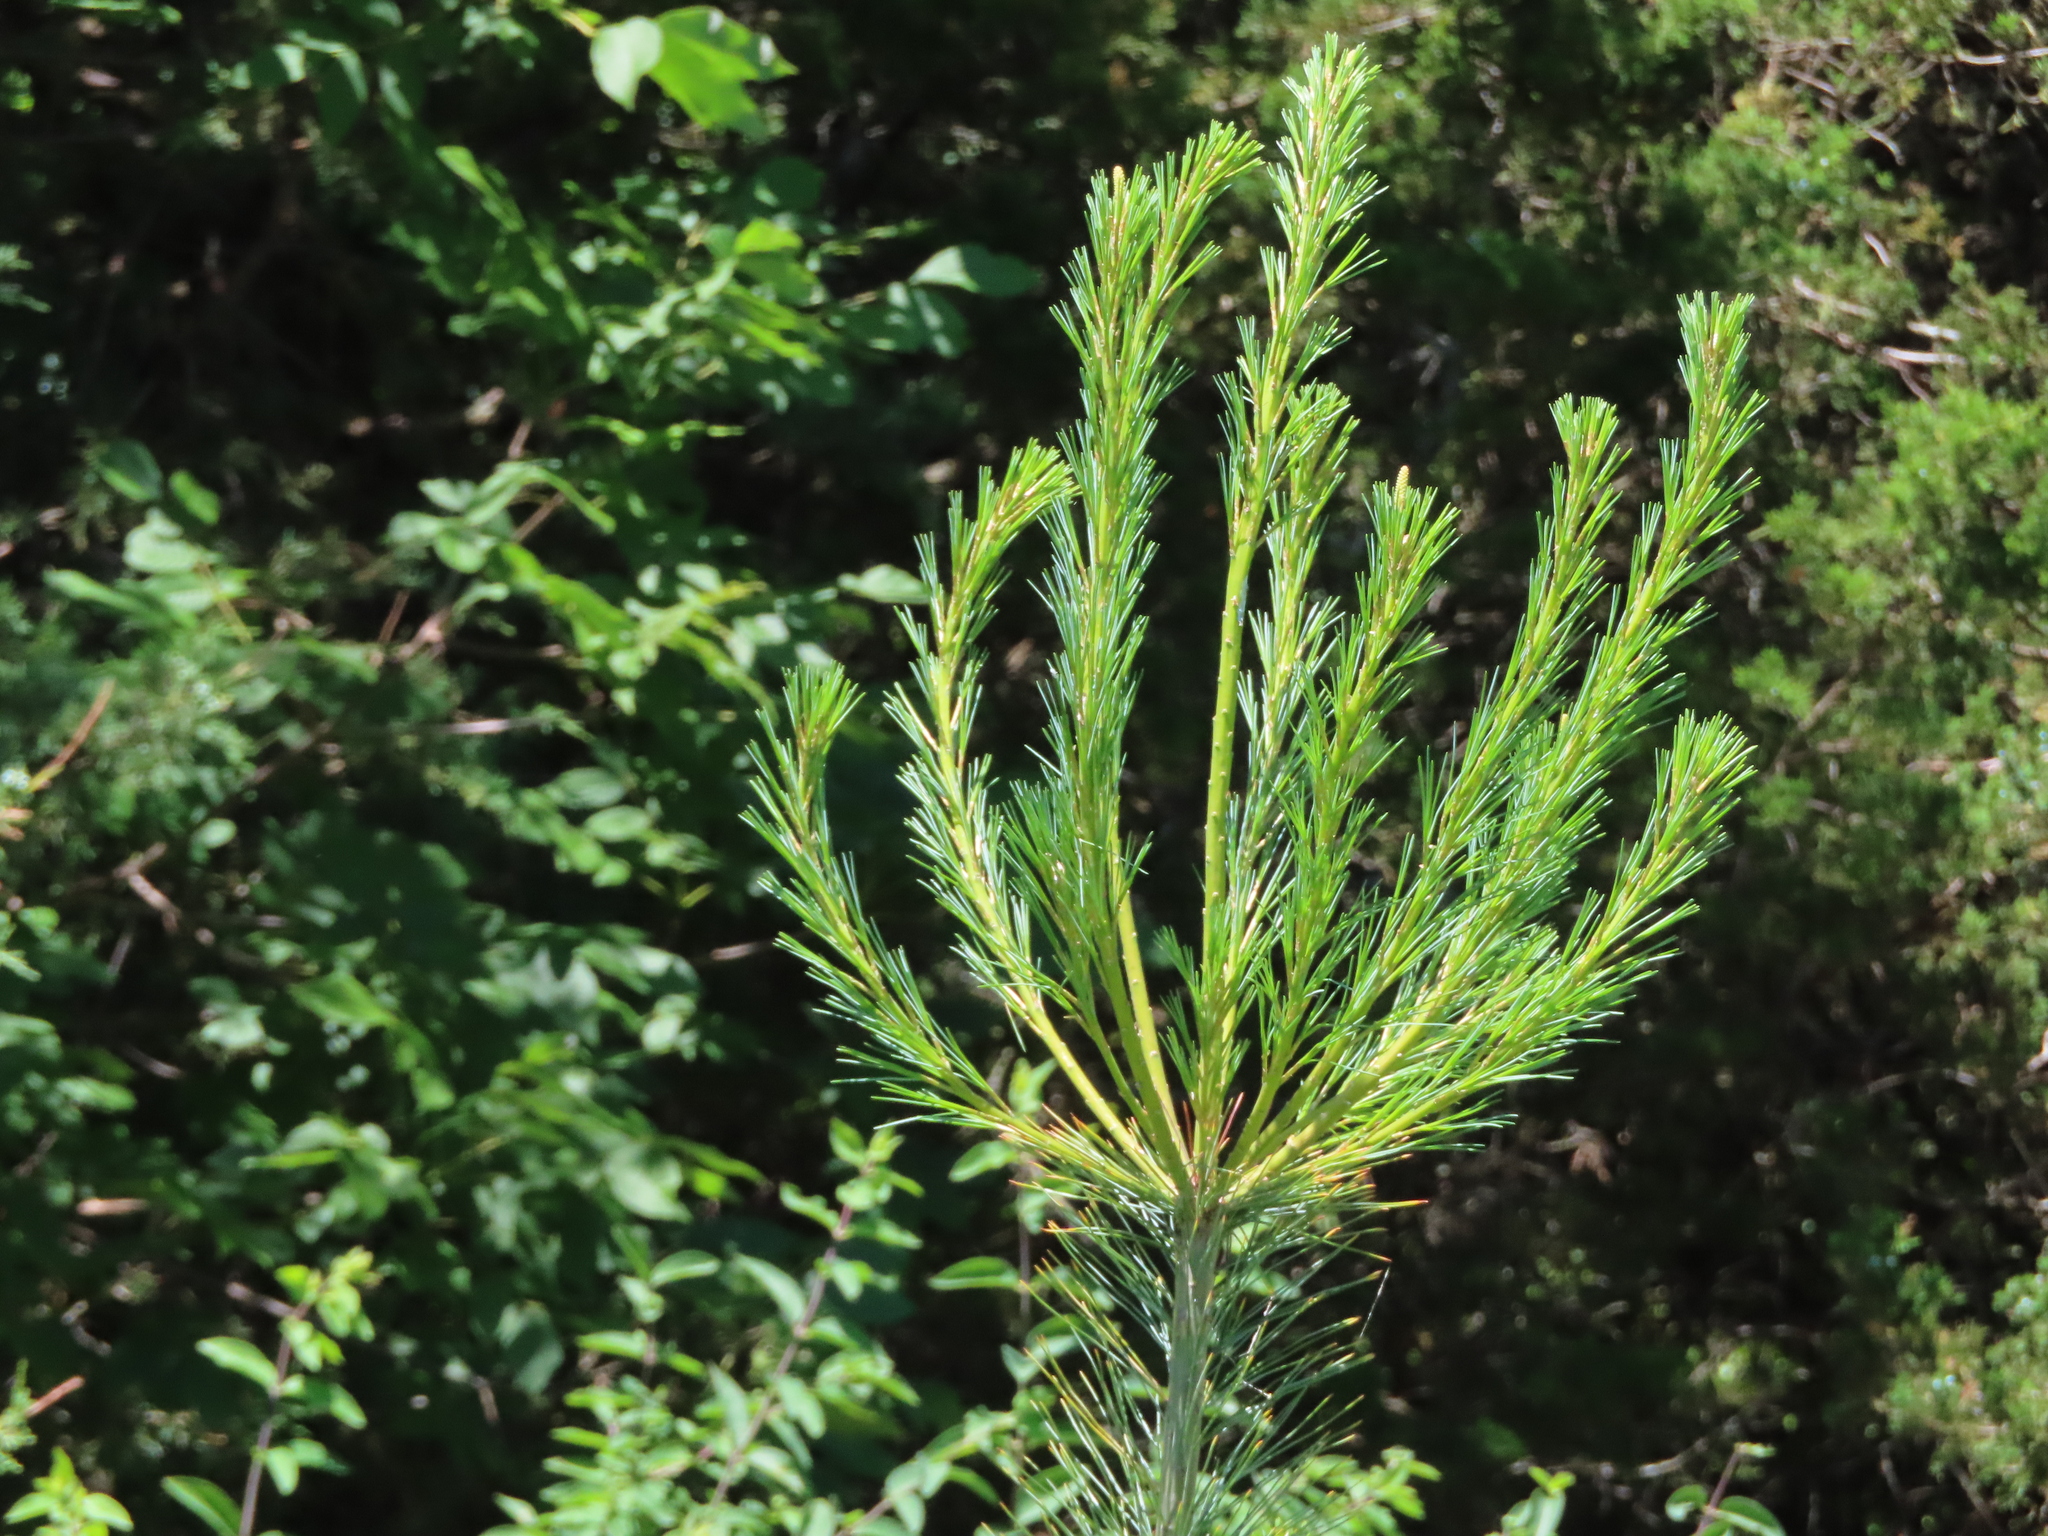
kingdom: Plantae
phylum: Tracheophyta
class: Pinopsida
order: Pinales
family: Pinaceae
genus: Pinus
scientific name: Pinus strobus
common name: Weymouth pine
